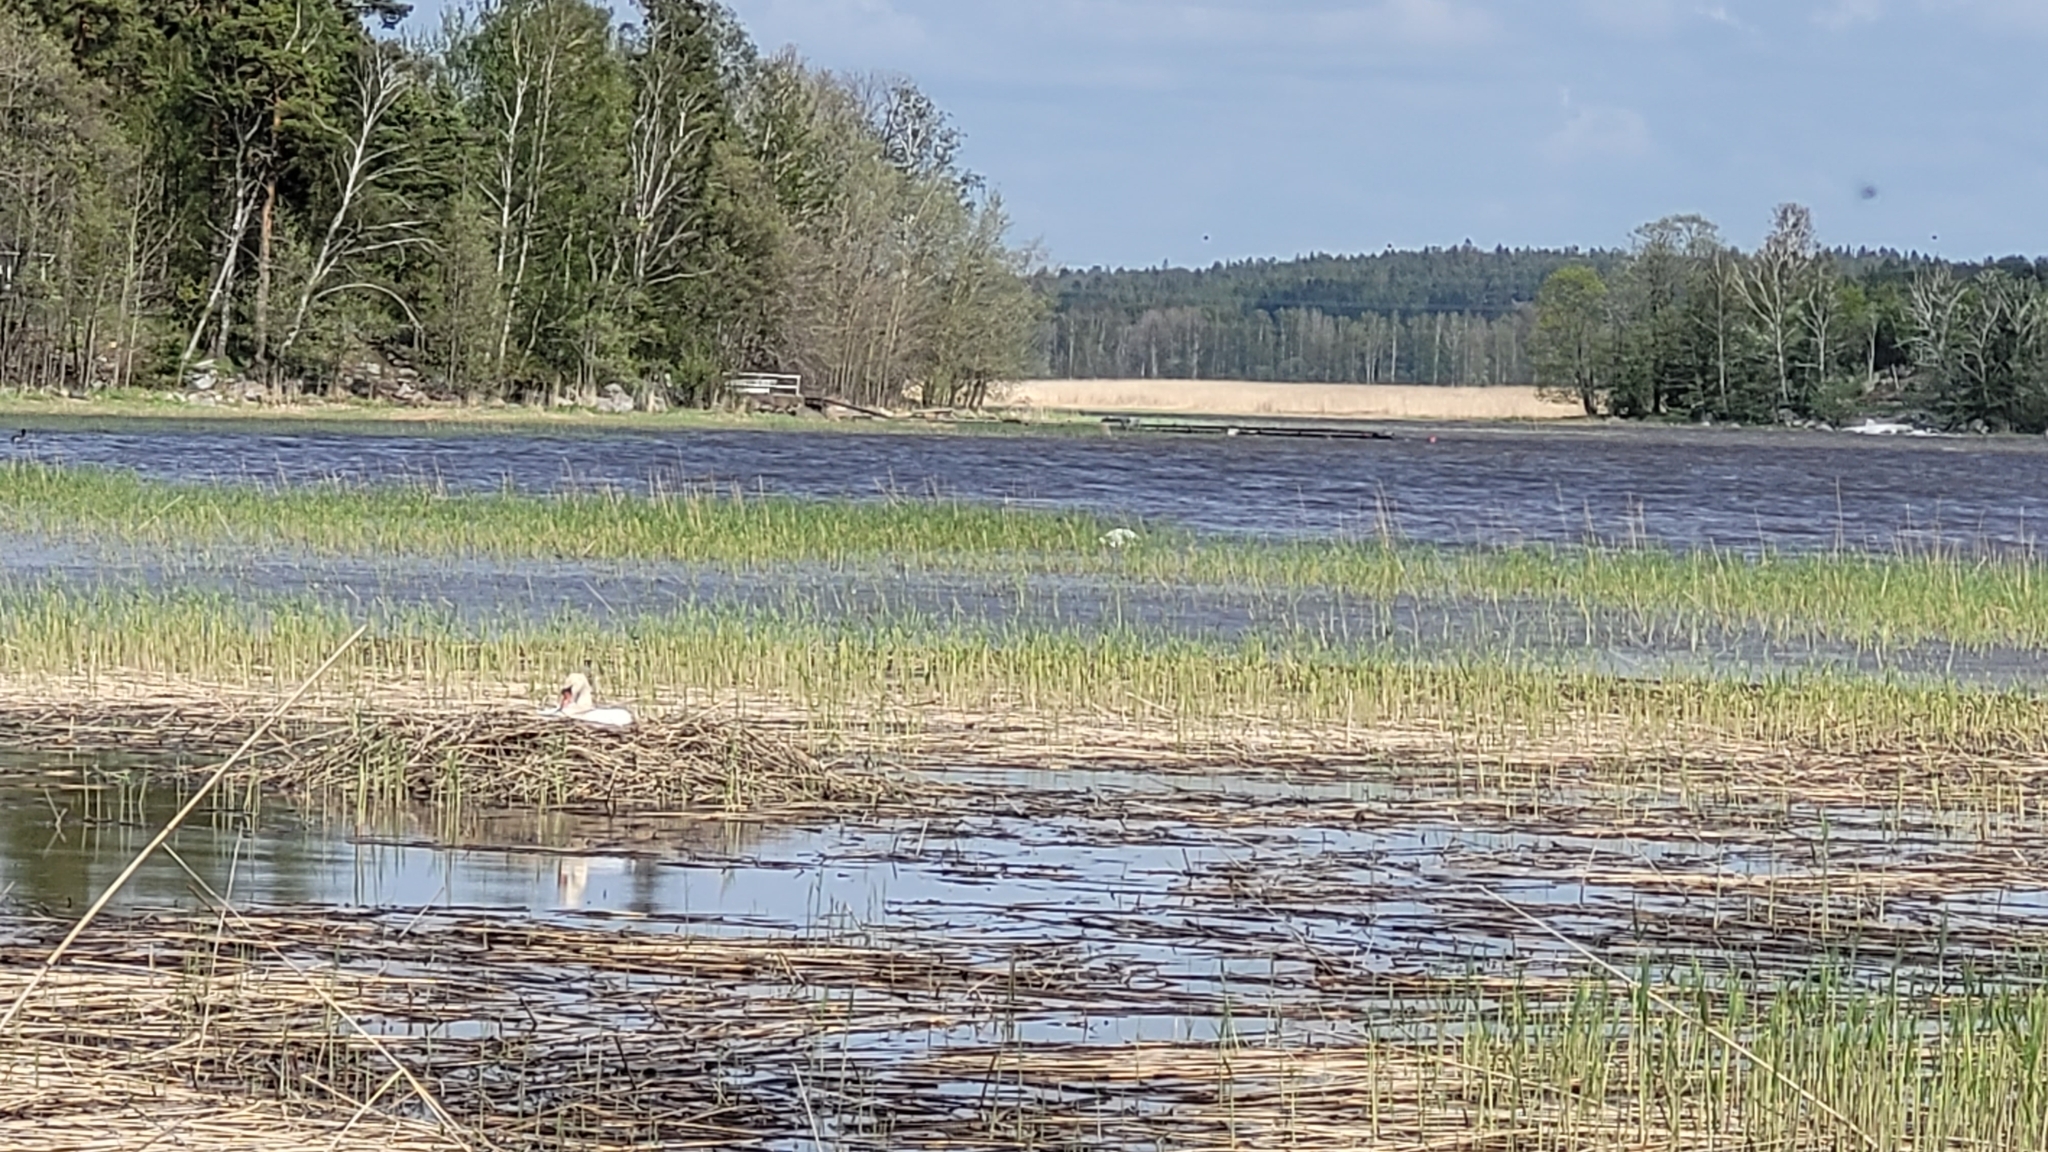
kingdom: Animalia
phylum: Chordata
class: Aves
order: Anseriformes
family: Anatidae
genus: Cygnus
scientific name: Cygnus olor
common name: Mute swan
